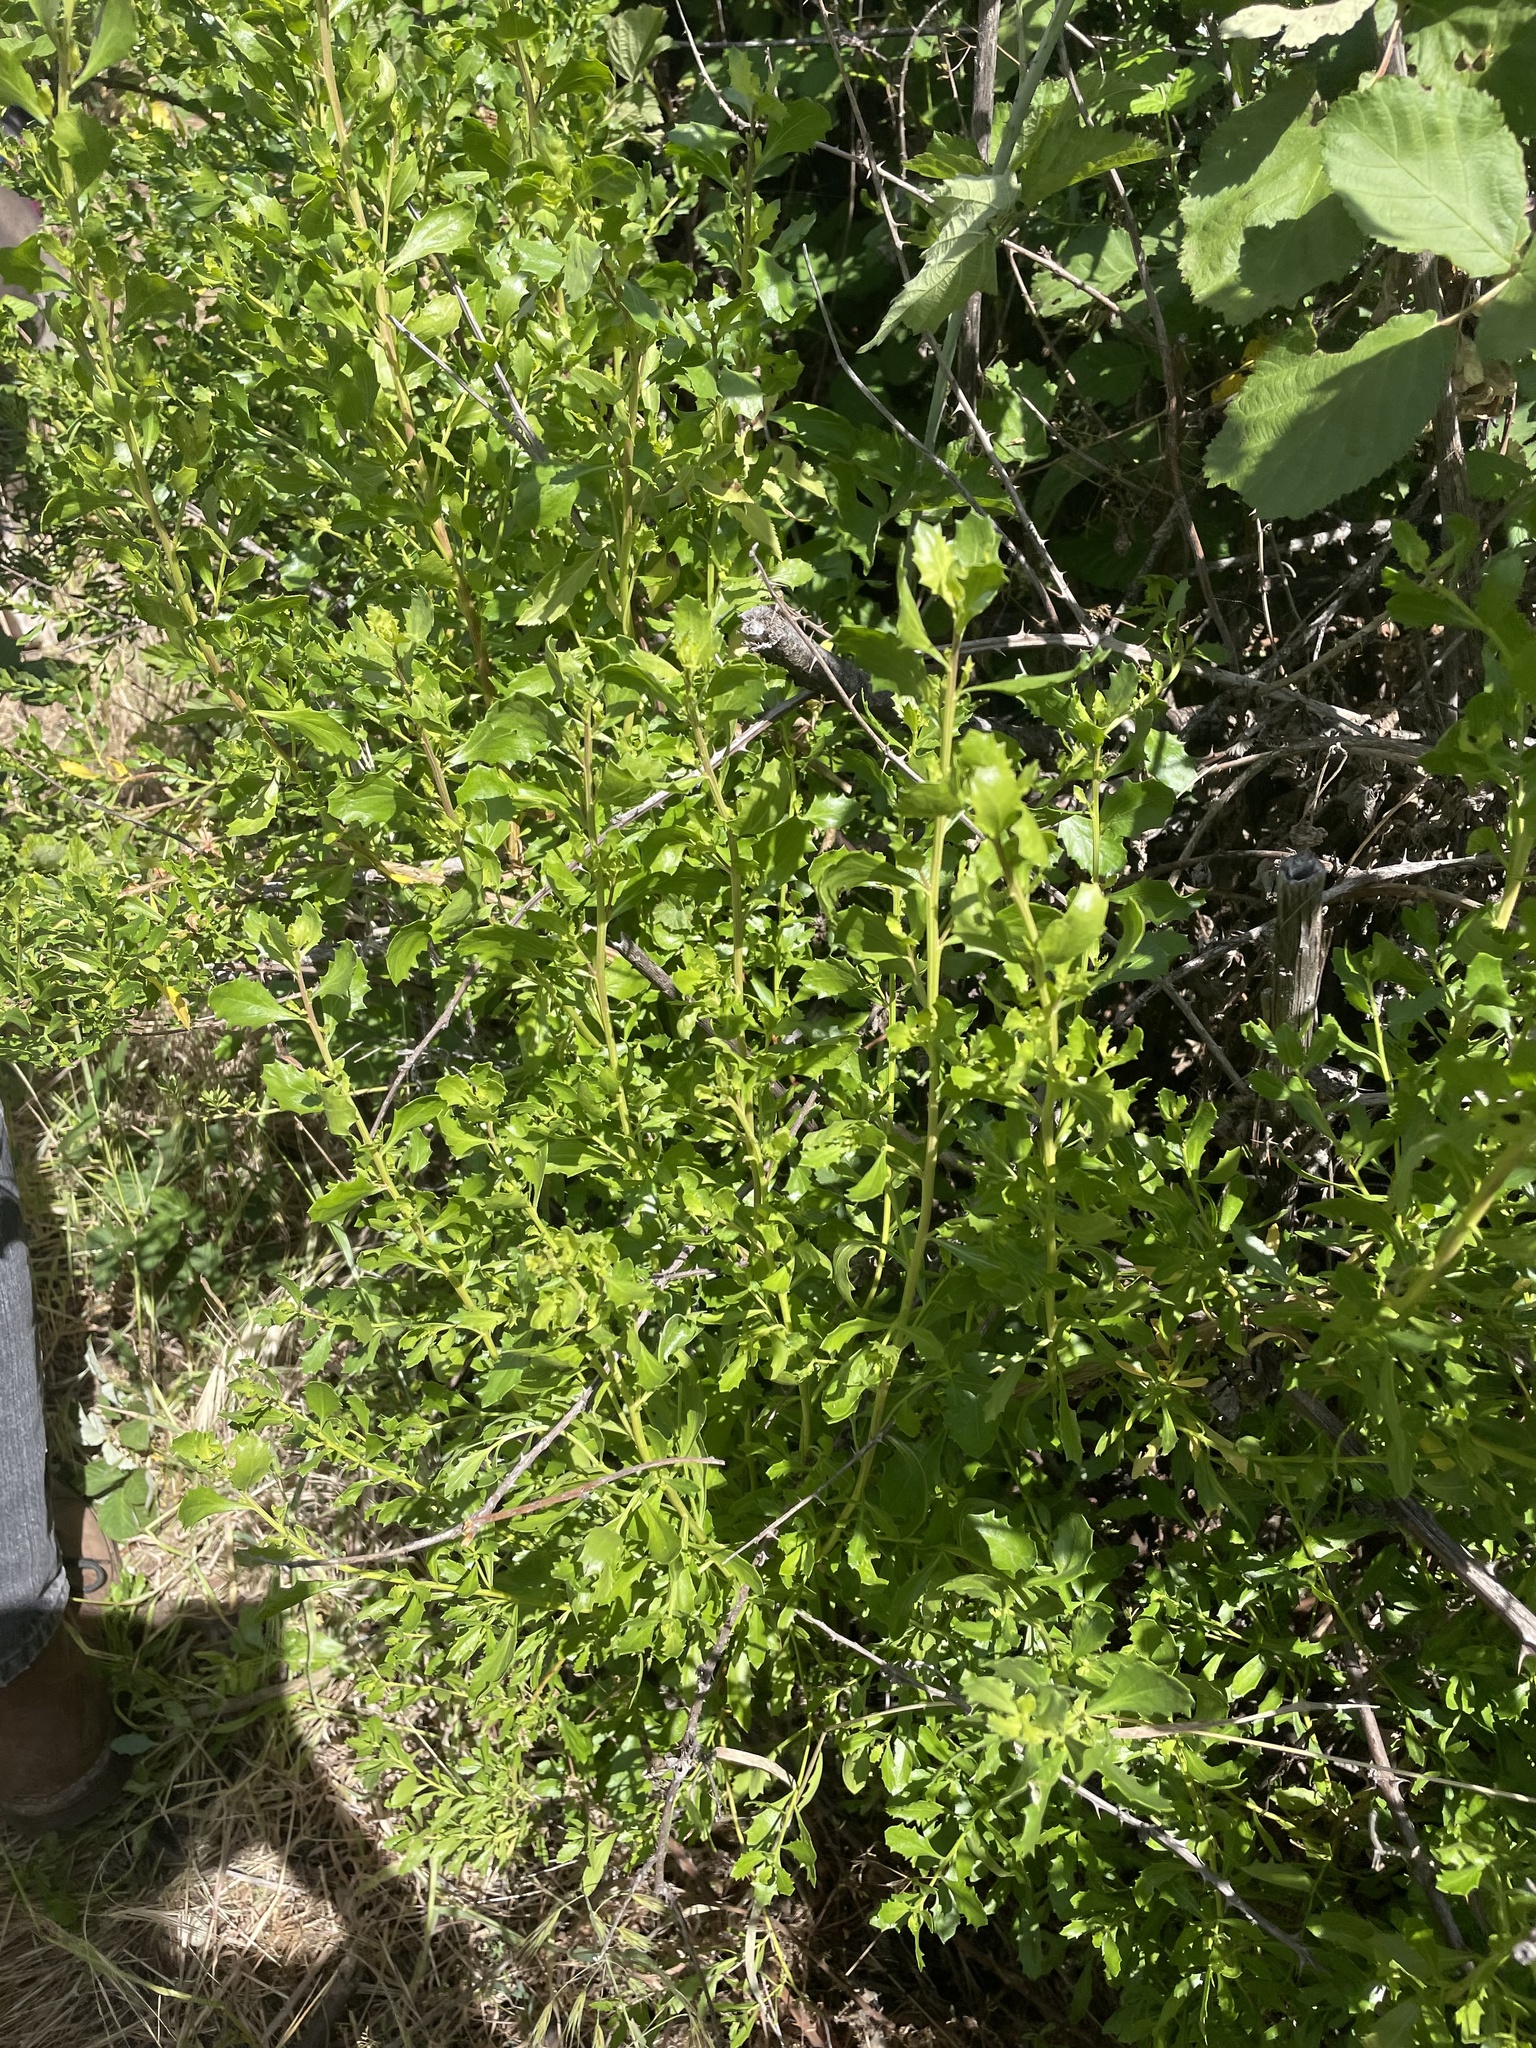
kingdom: Plantae
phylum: Tracheophyta
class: Magnoliopsida
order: Asterales
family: Asteraceae
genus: Baccharis
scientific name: Baccharis pilularis
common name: Coyotebrush
